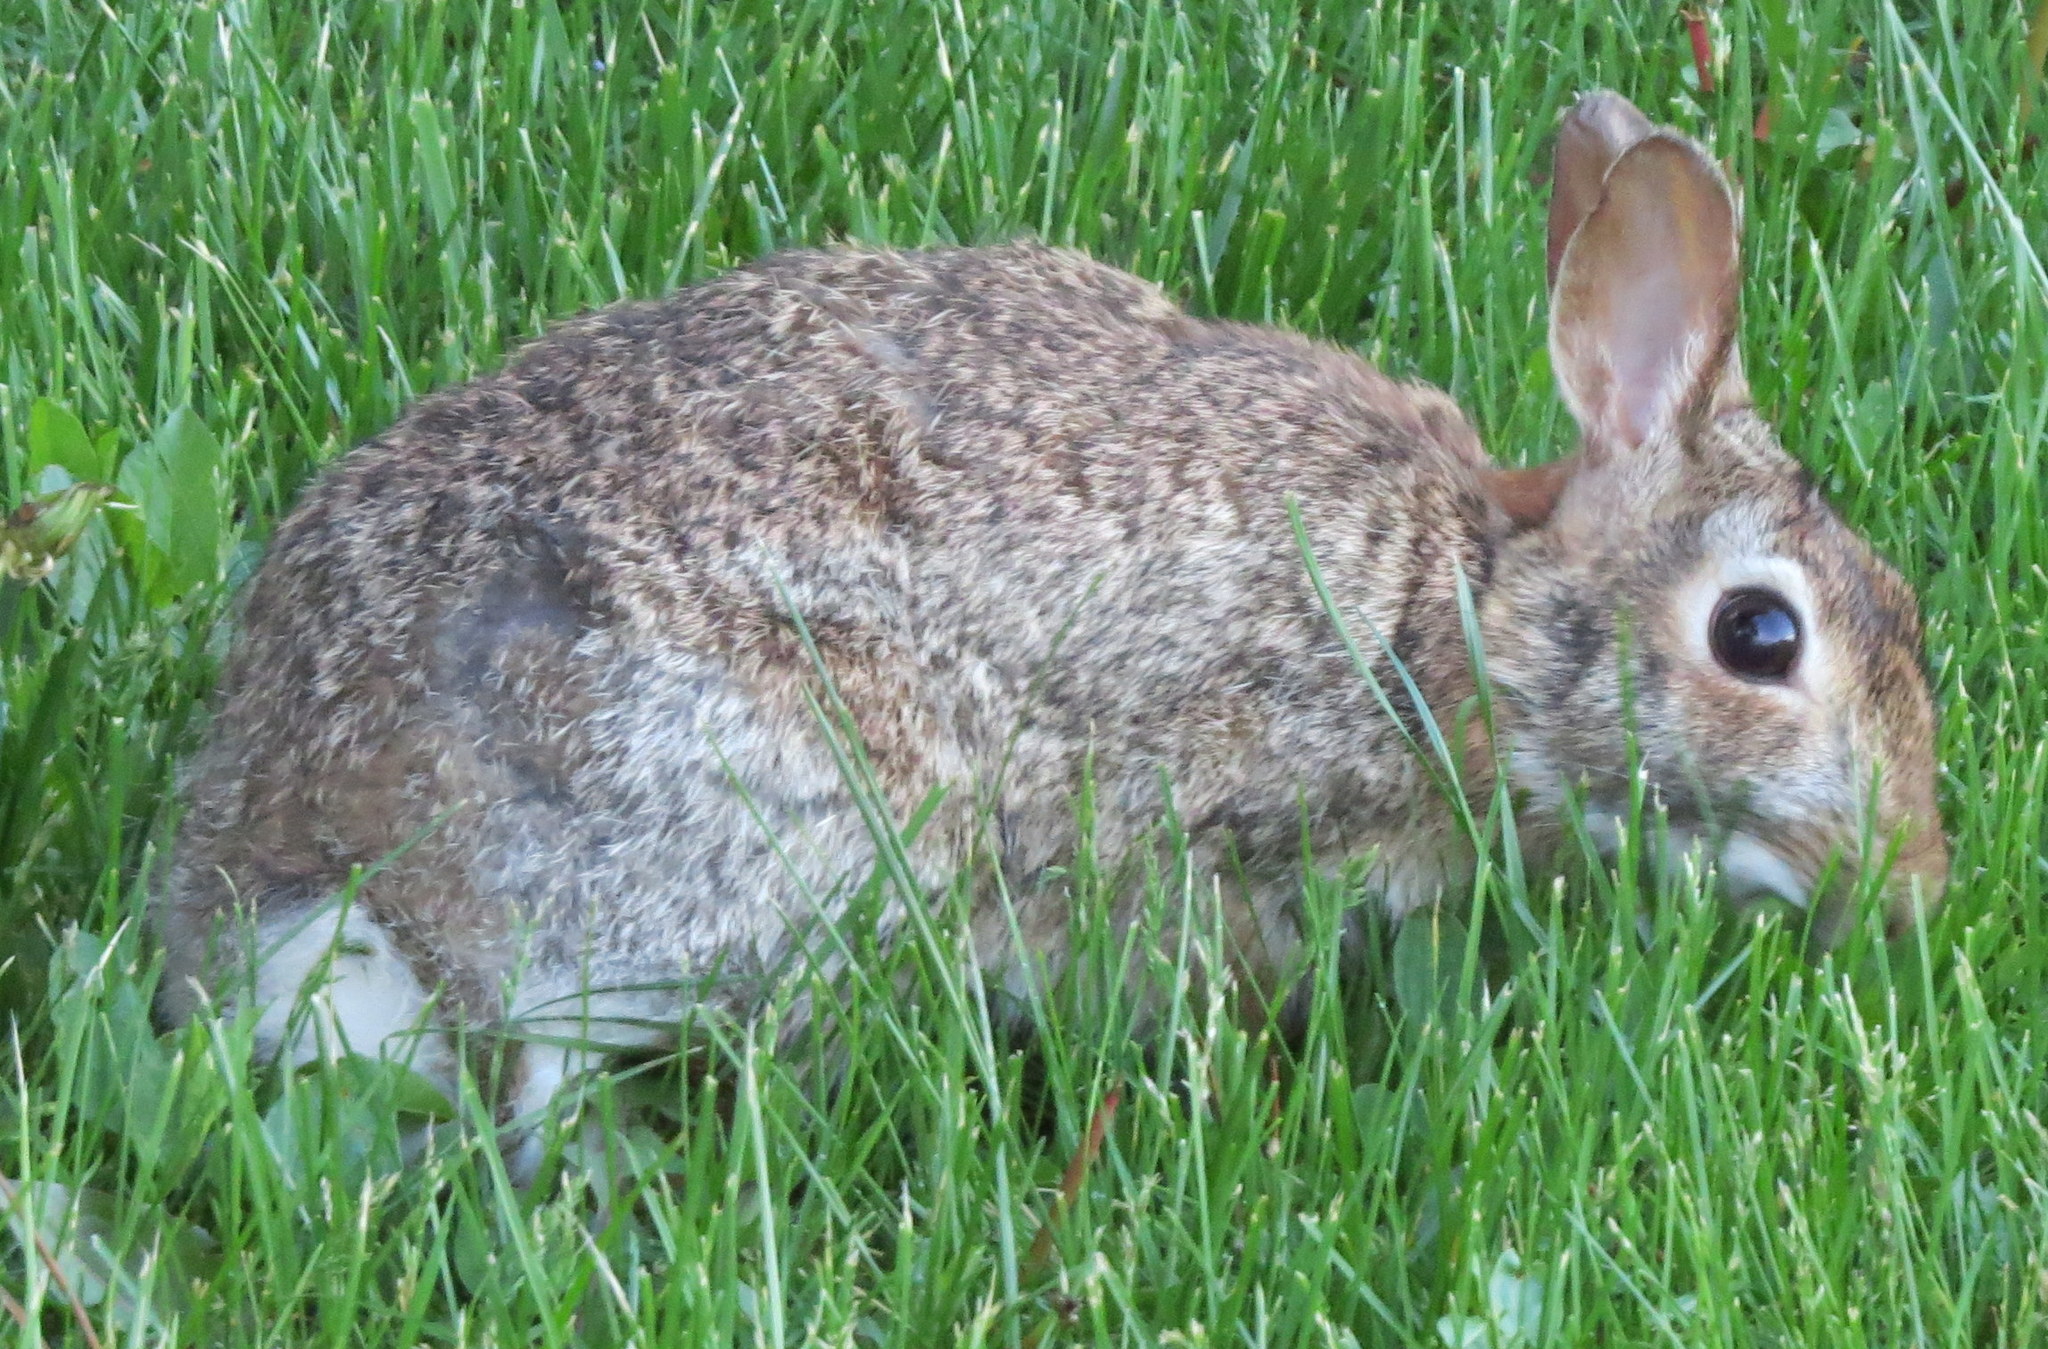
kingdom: Animalia
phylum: Chordata
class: Mammalia
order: Lagomorpha
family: Leporidae
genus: Sylvilagus
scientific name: Sylvilagus floridanus
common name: Eastern cottontail
